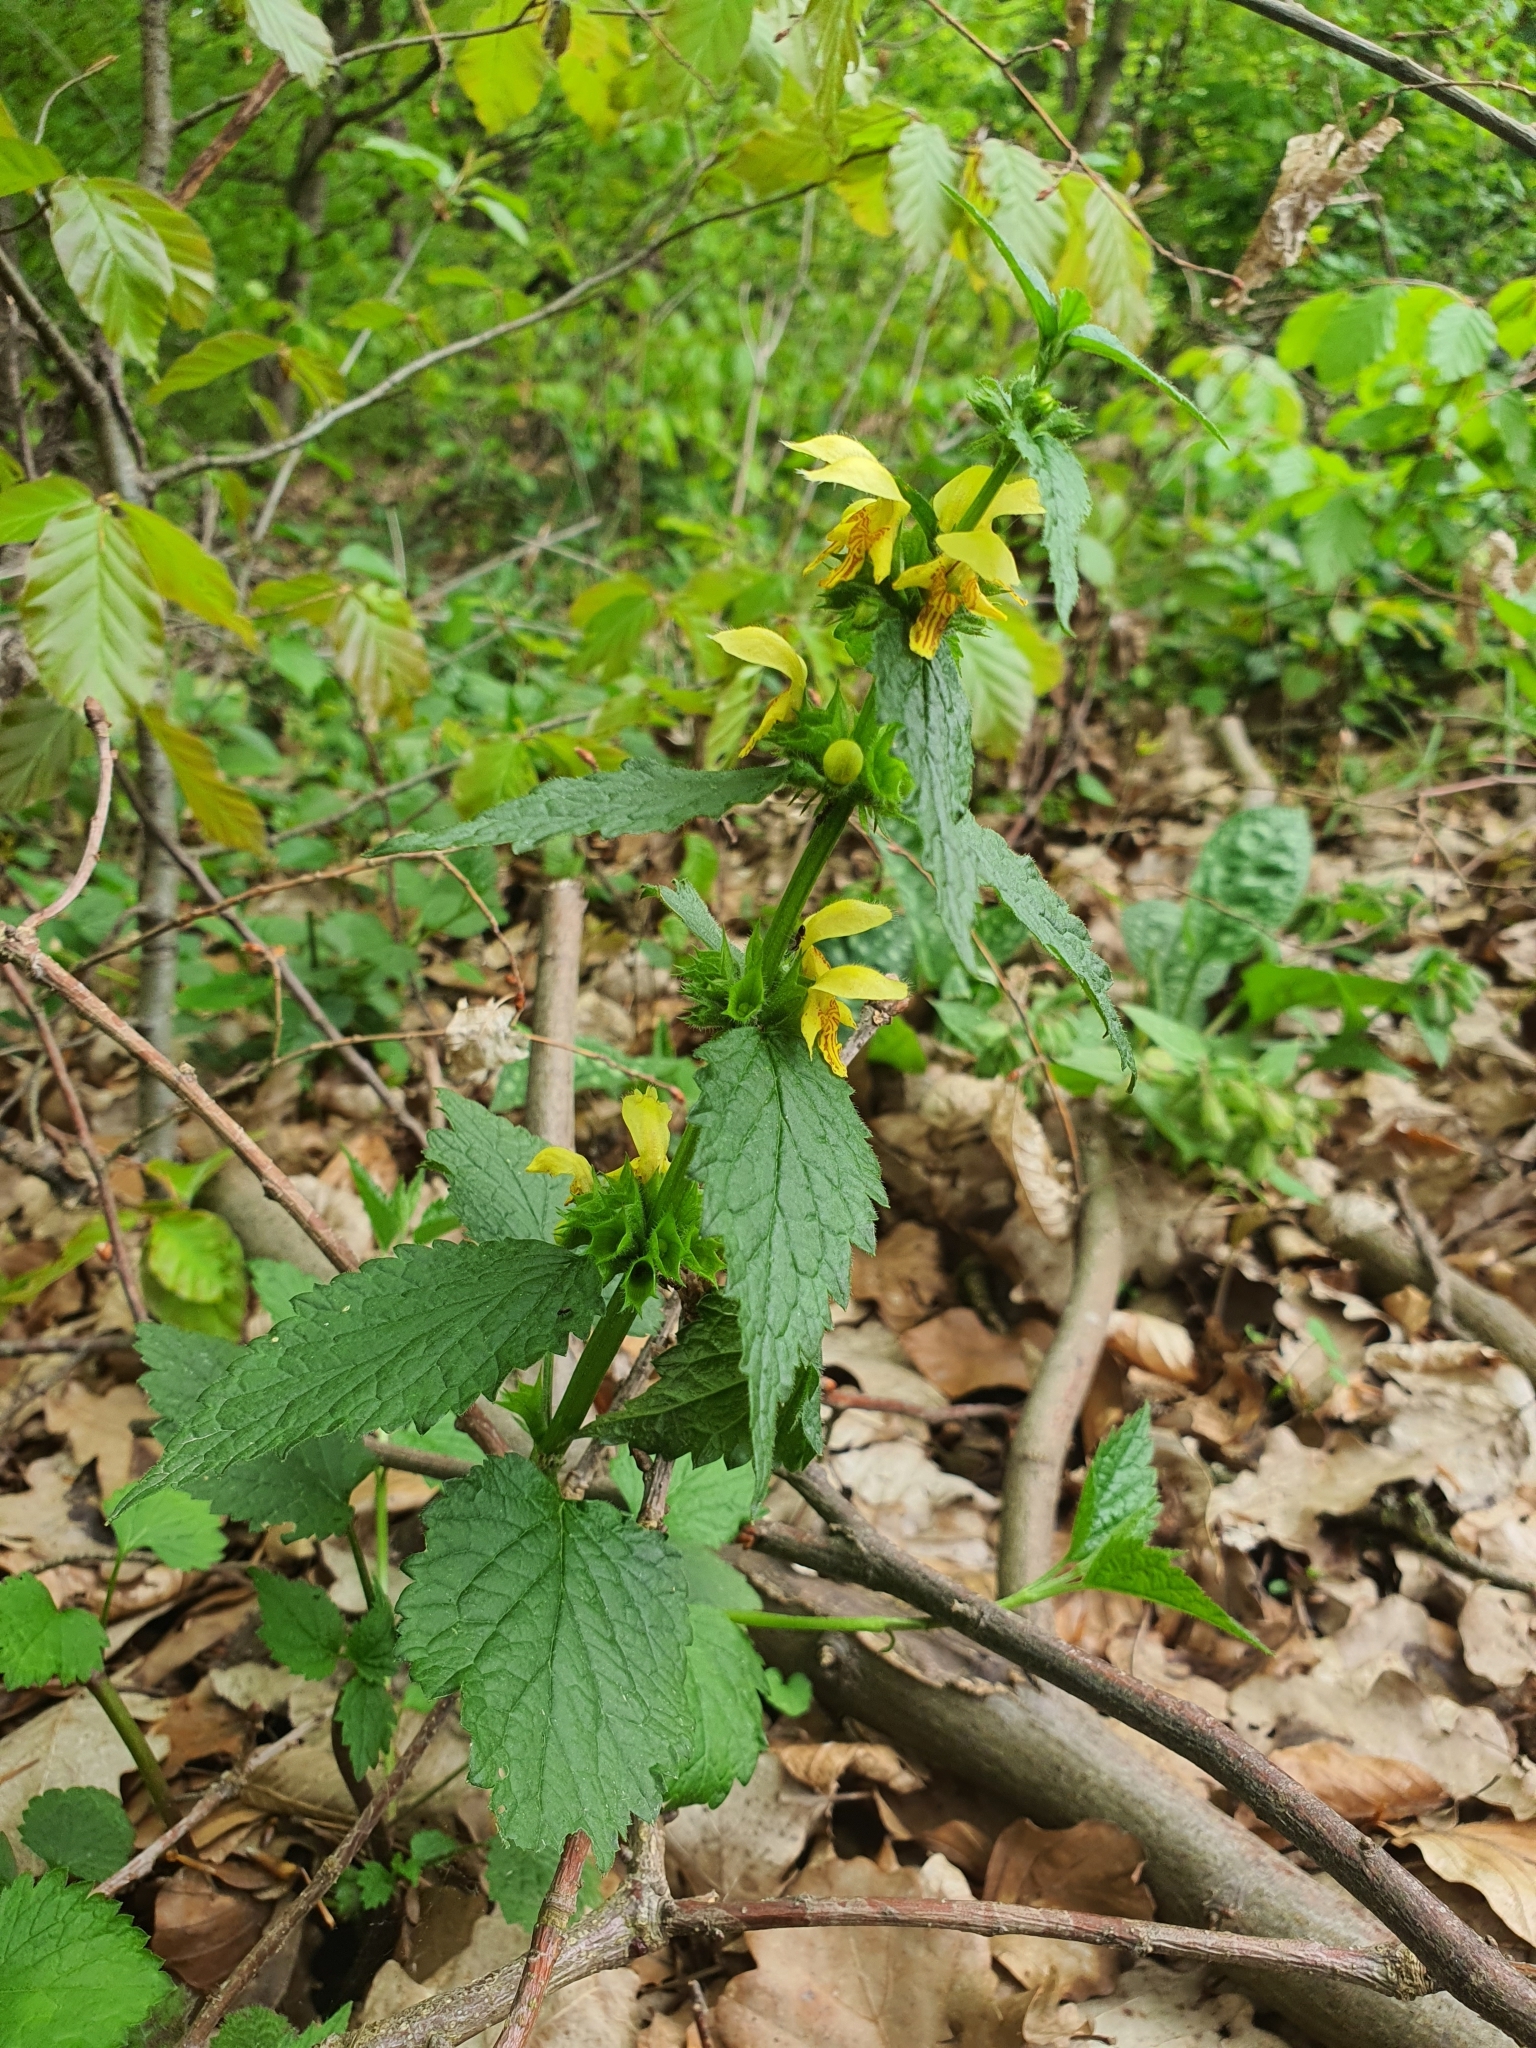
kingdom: Plantae
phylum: Tracheophyta
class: Magnoliopsida
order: Lamiales
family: Lamiaceae
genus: Lamium
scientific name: Lamium galeobdolon
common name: Yellow archangel
